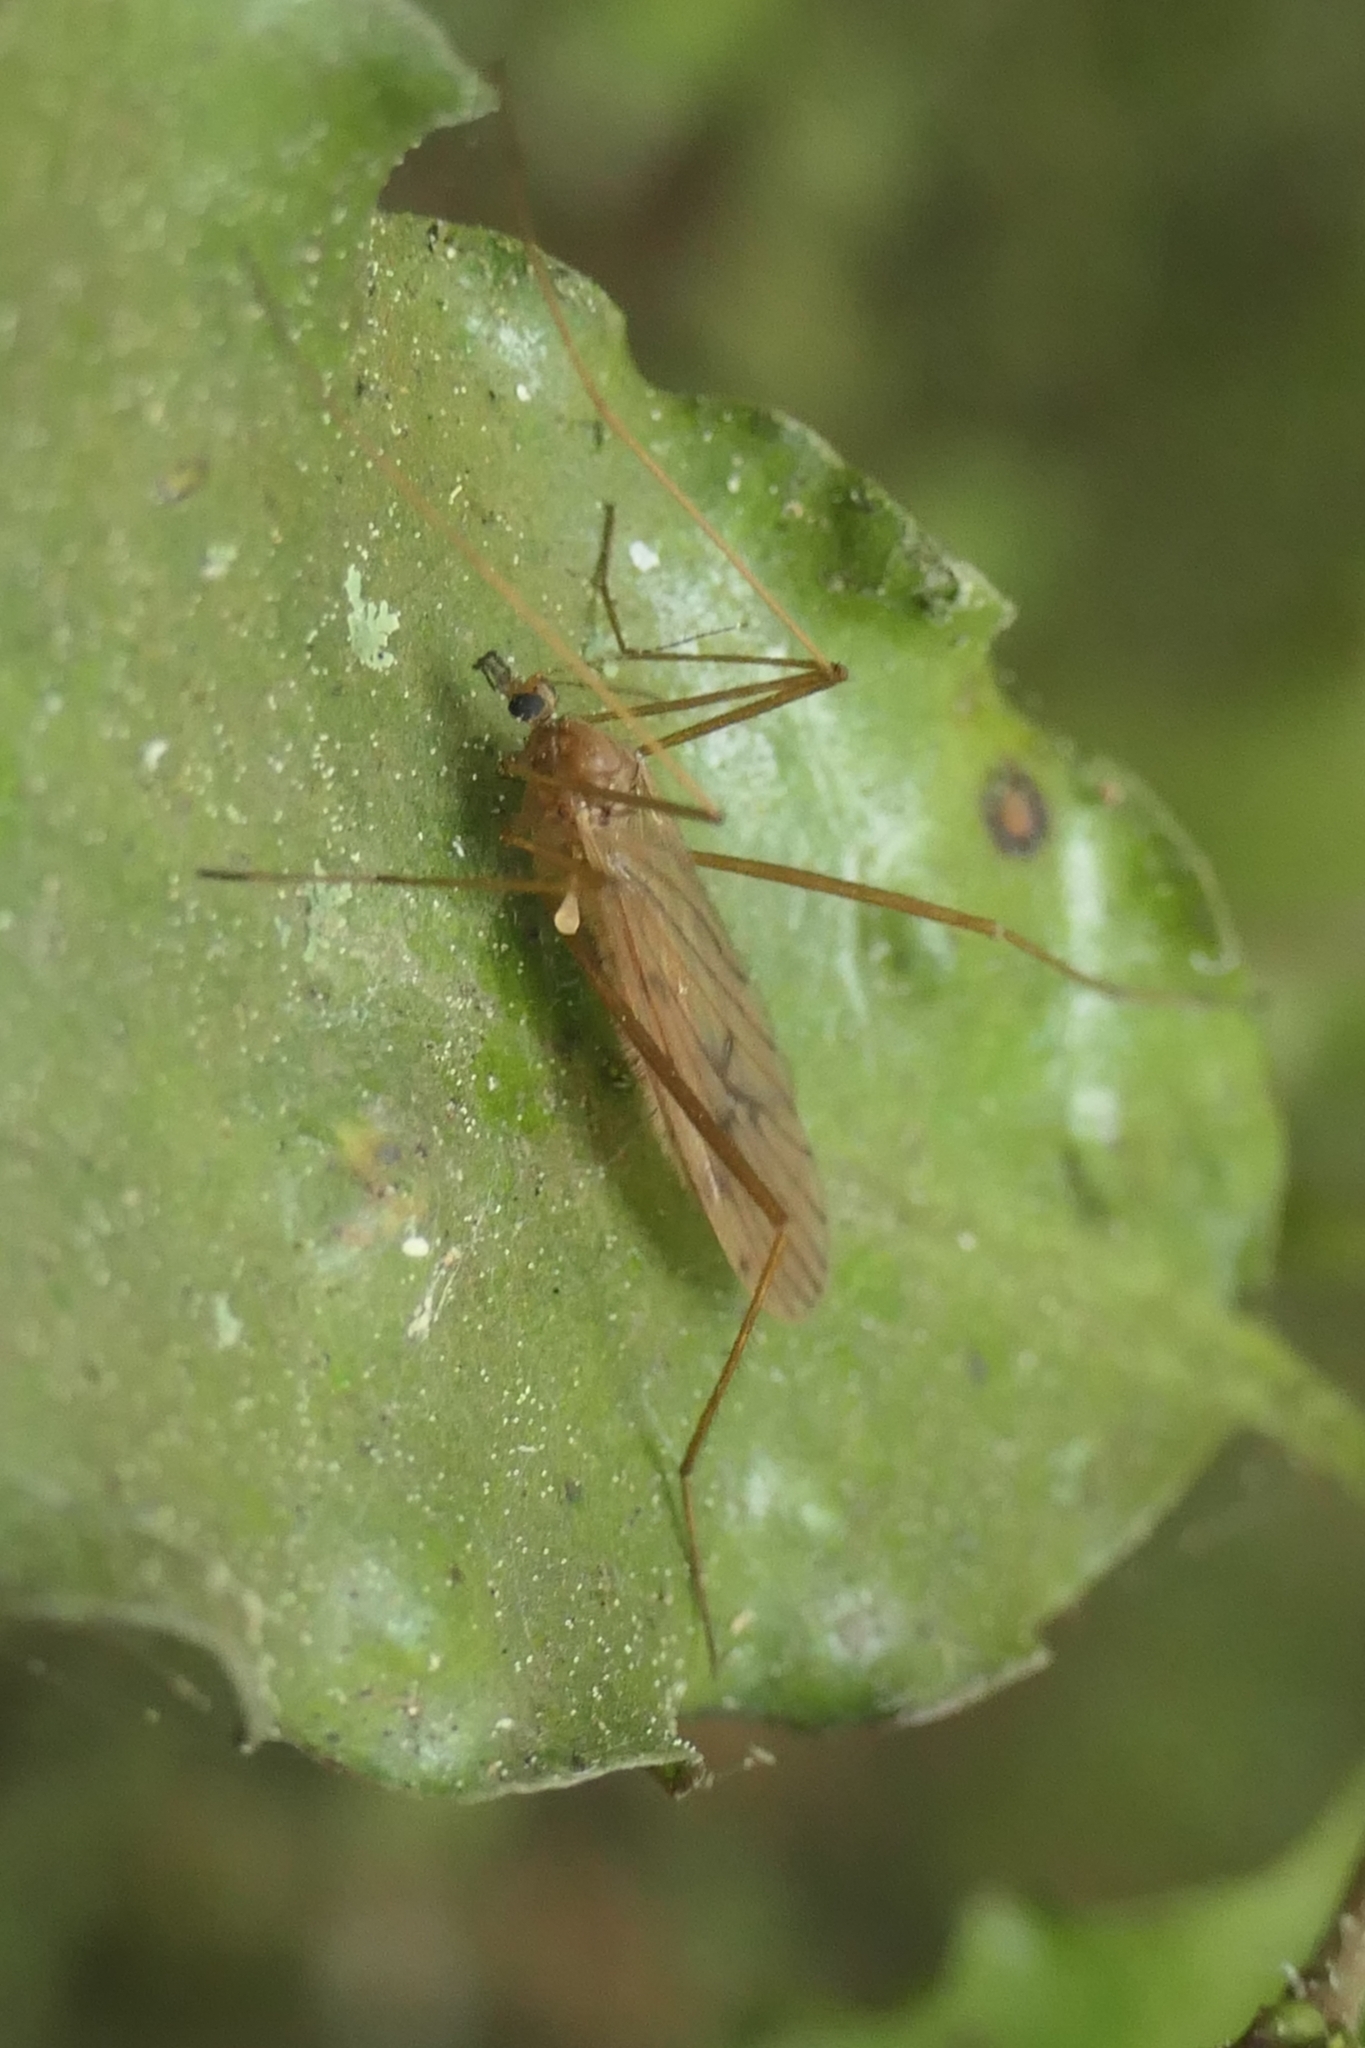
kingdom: Animalia
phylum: Arthropoda
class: Insecta
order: Diptera
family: Limoniidae
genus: Amphineurus
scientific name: Amphineurus insulsus
